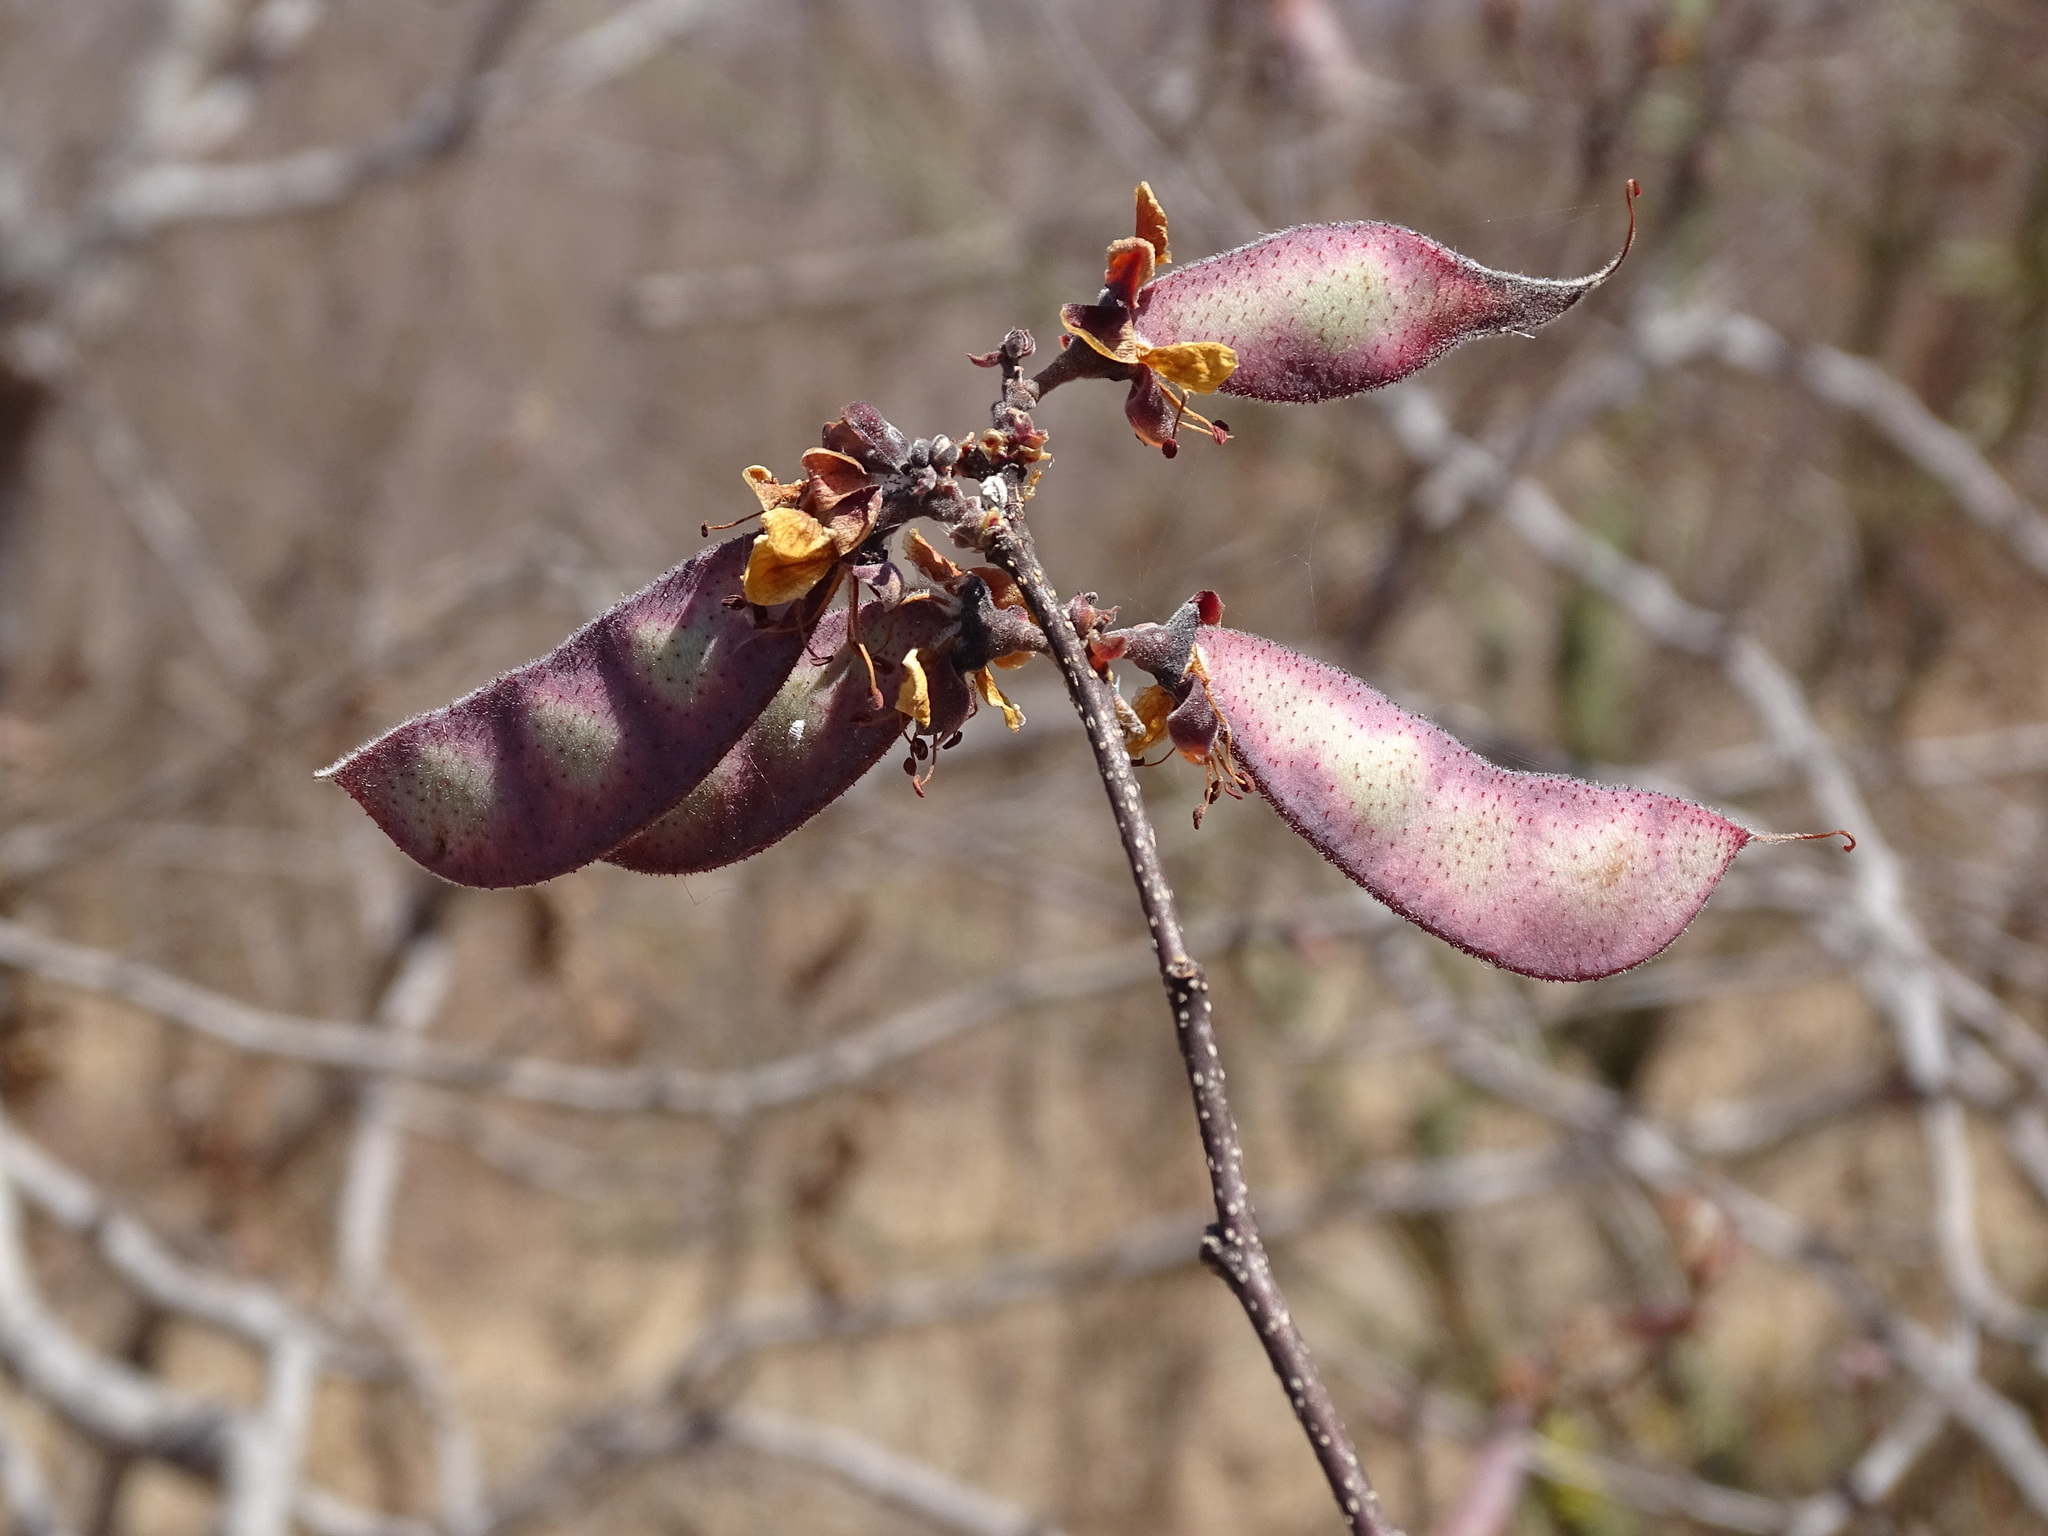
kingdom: Plantae
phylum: Tracheophyta
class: Magnoliopsida
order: Fabales
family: Fabaceae
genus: Erythrostemon
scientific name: Erythrostemon palmeri
